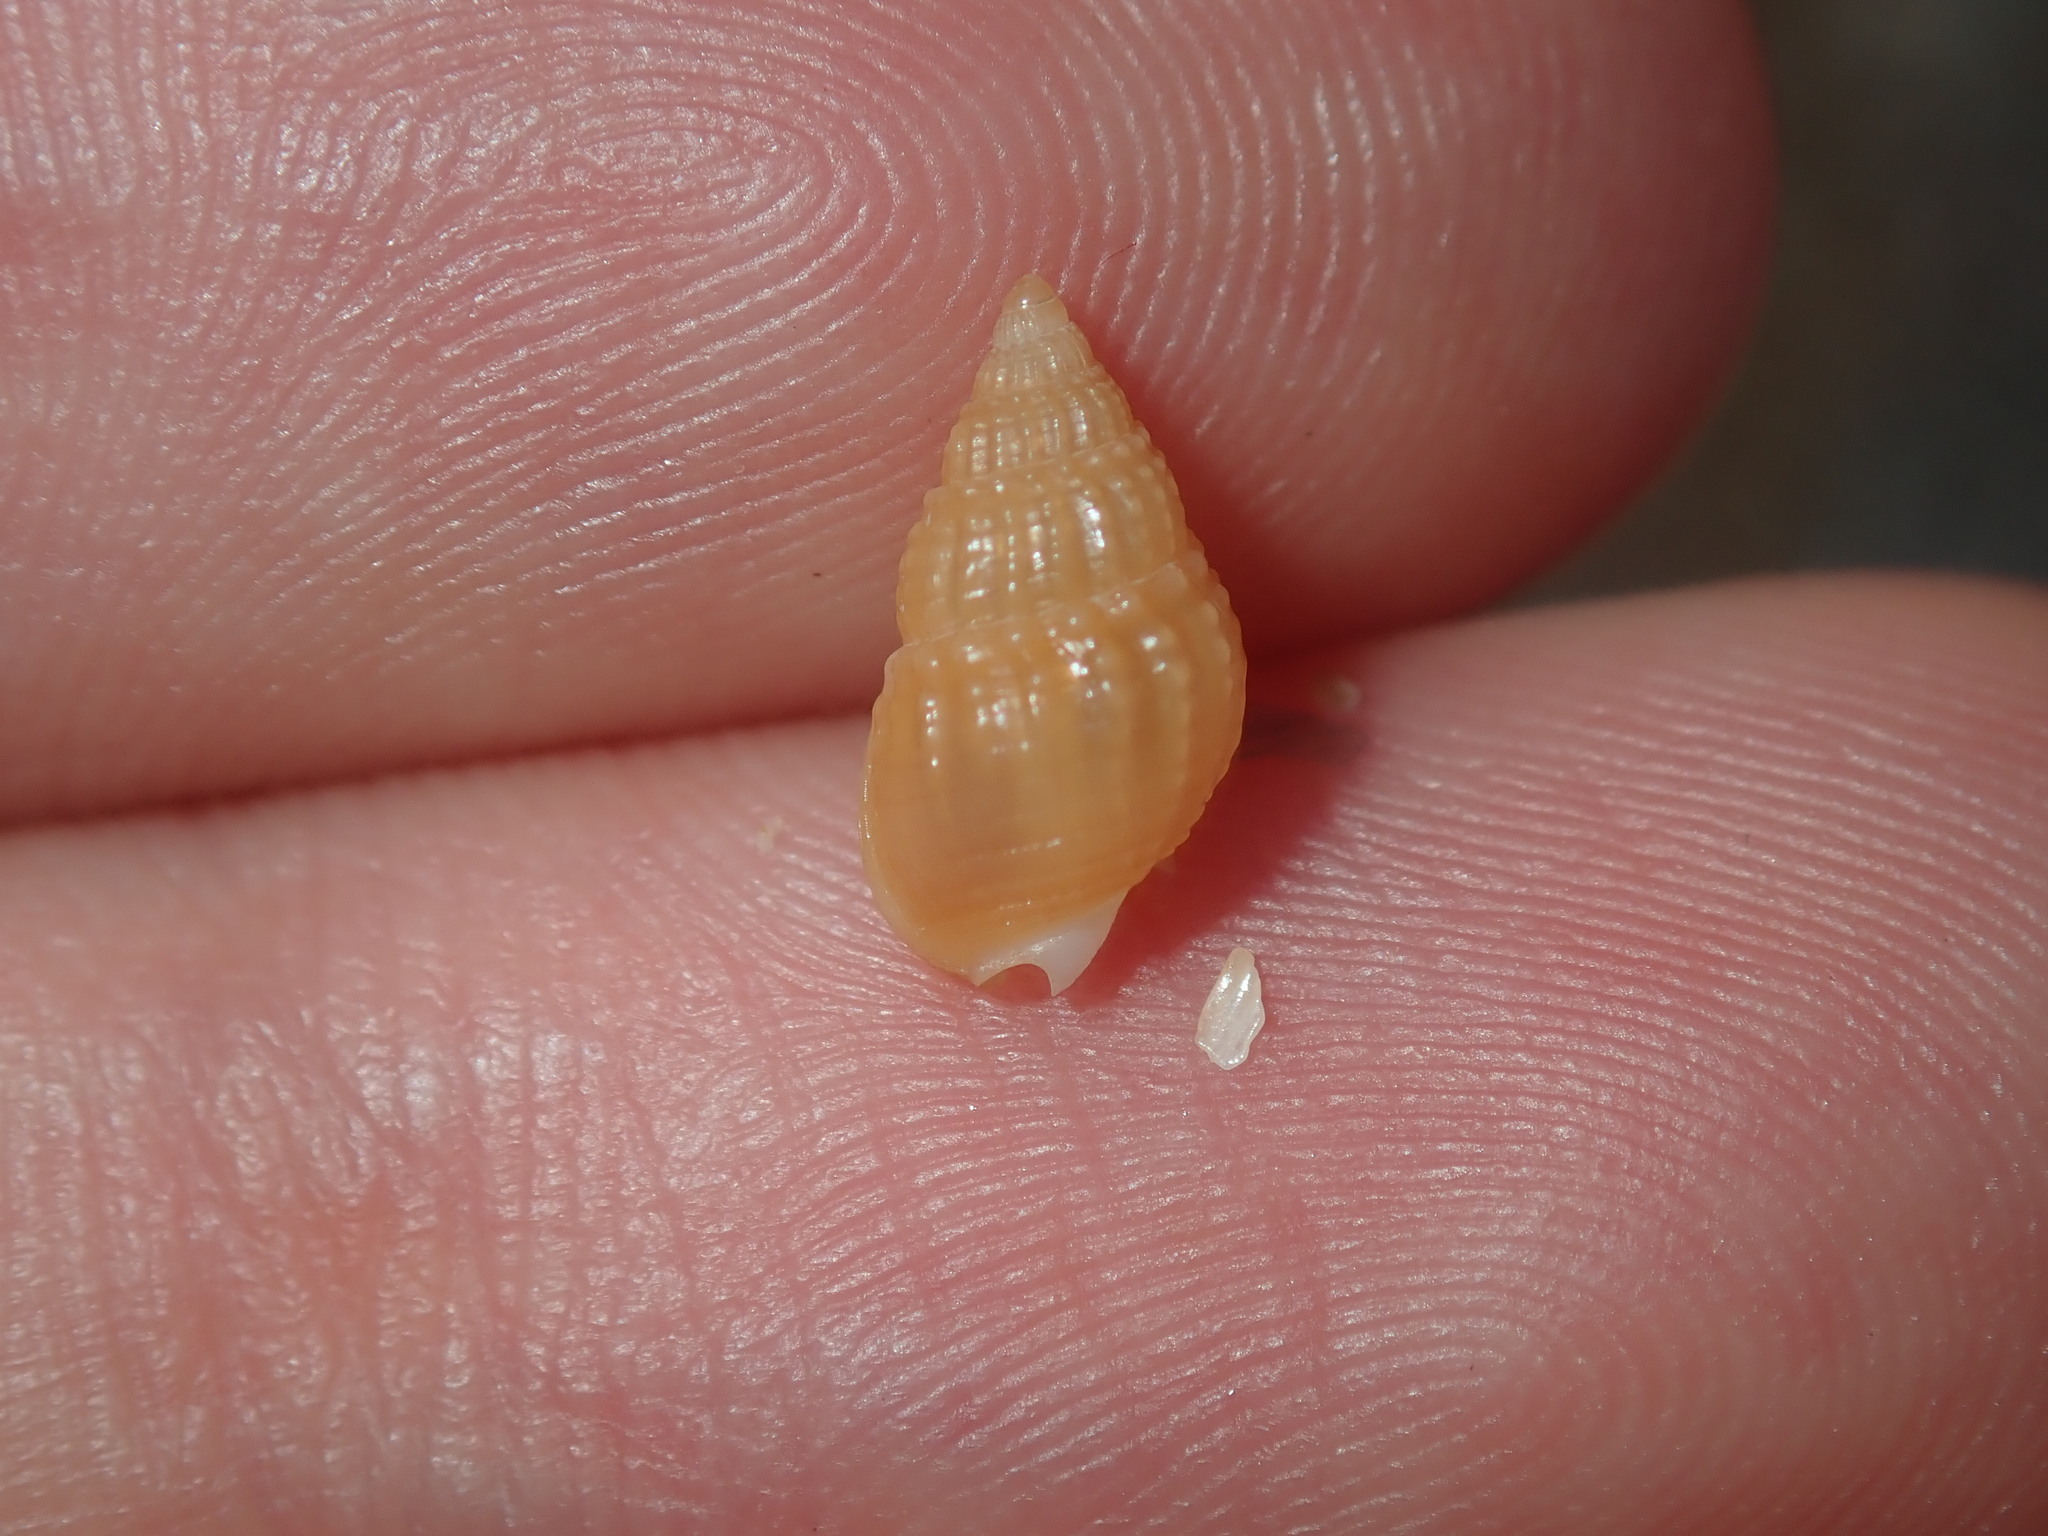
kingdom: Animalia
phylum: Mollusca
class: Gastropoda
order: Neogastropoda
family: Nassariidae
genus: Nassarius
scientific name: Nassarius nigellus
